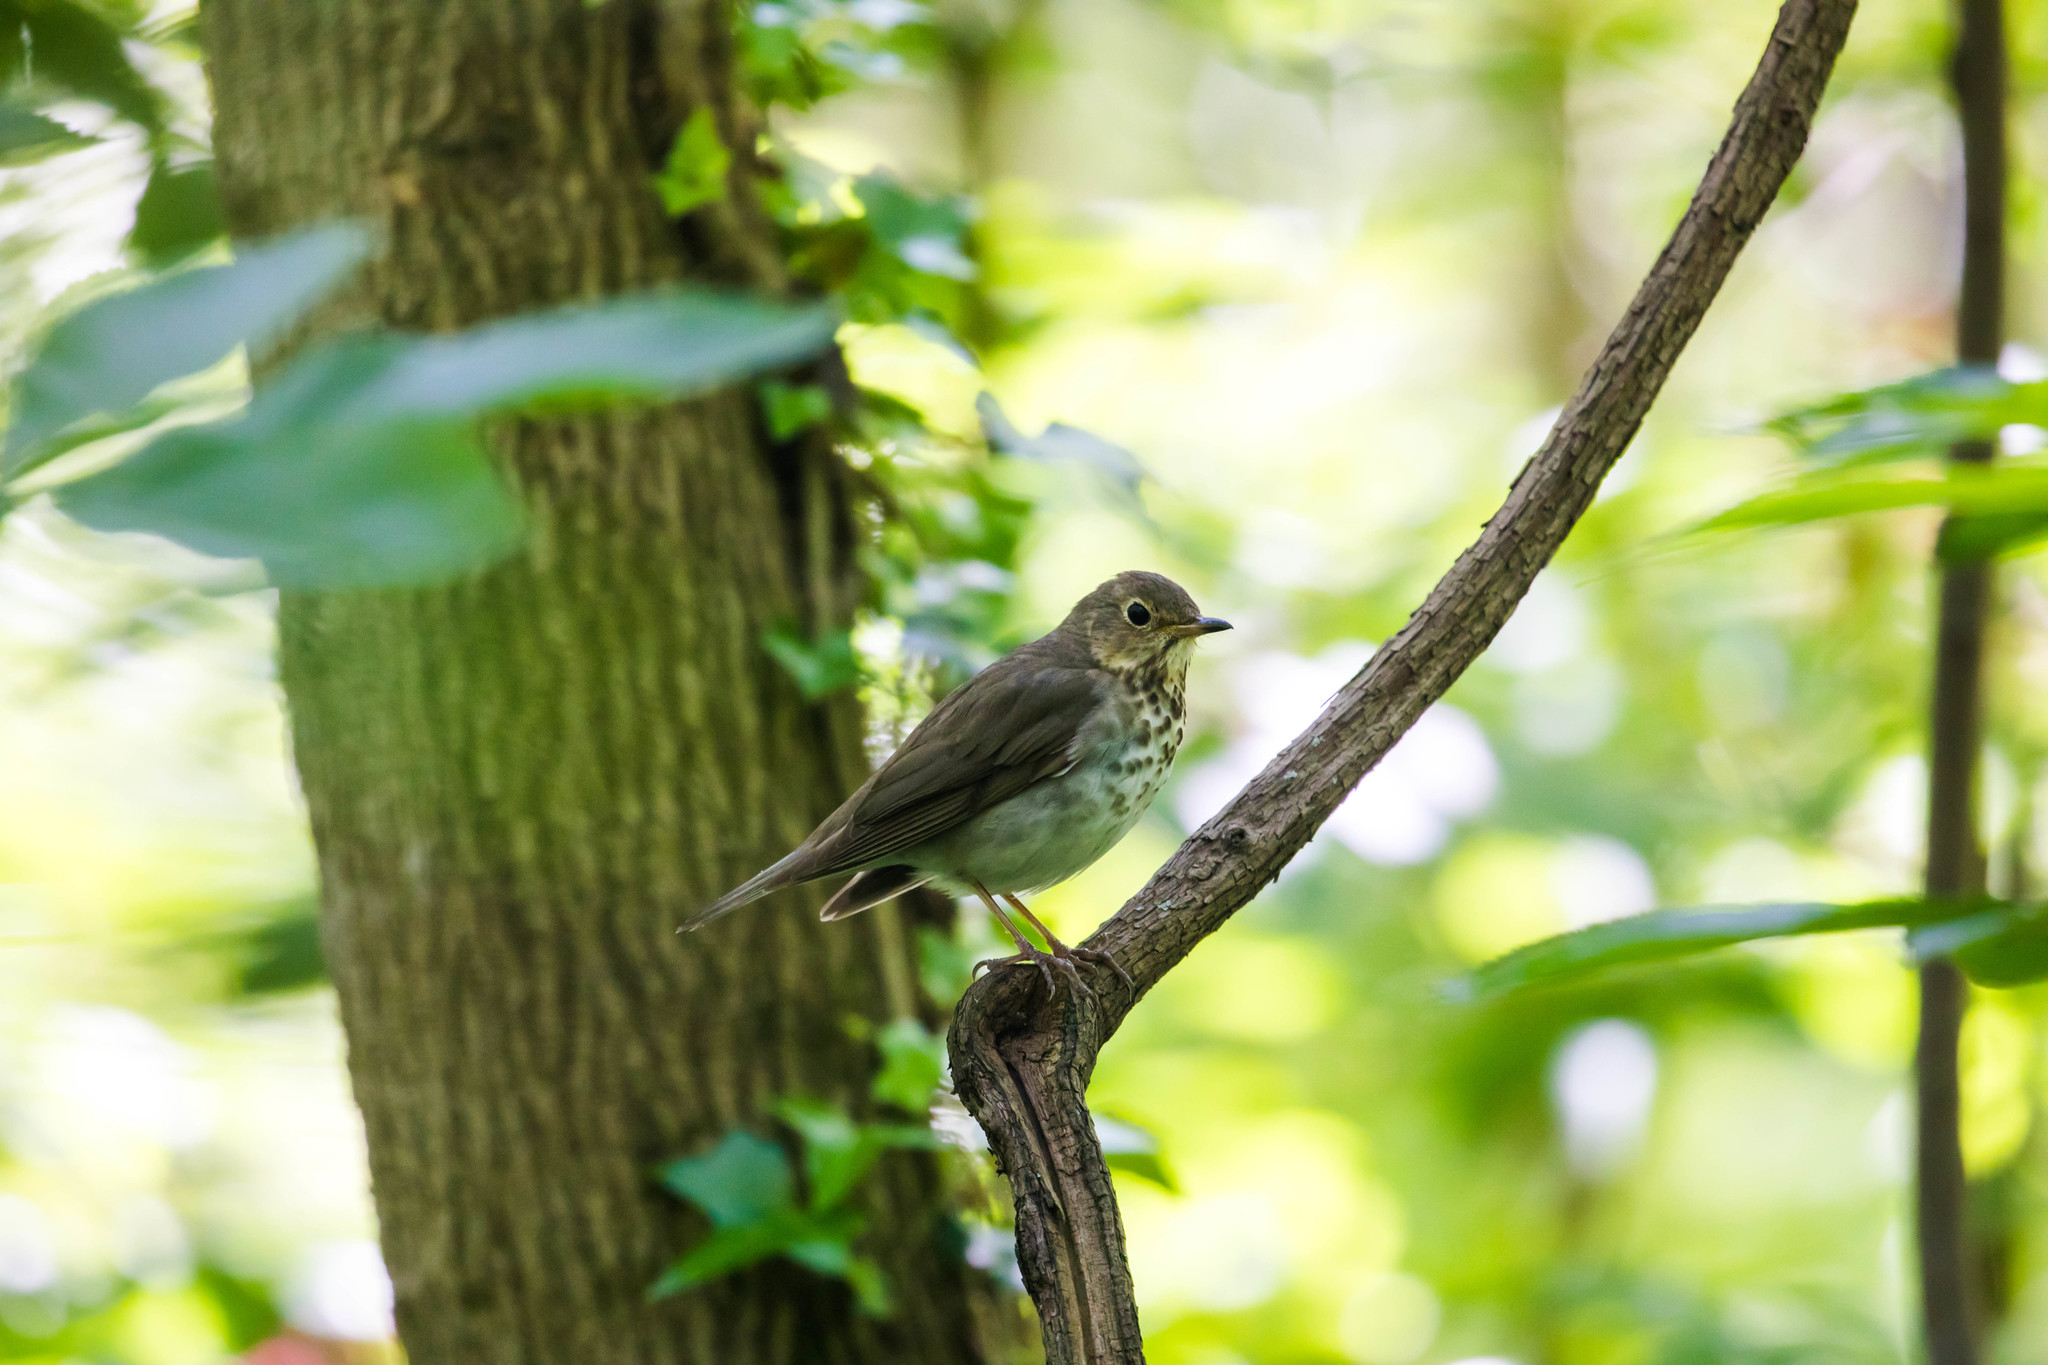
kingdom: Animalia
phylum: Chordata
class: Aves
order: Passeriformes
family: Turdidae
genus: Catharus
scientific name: Catharus ustulatus
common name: Swainson's thrush
